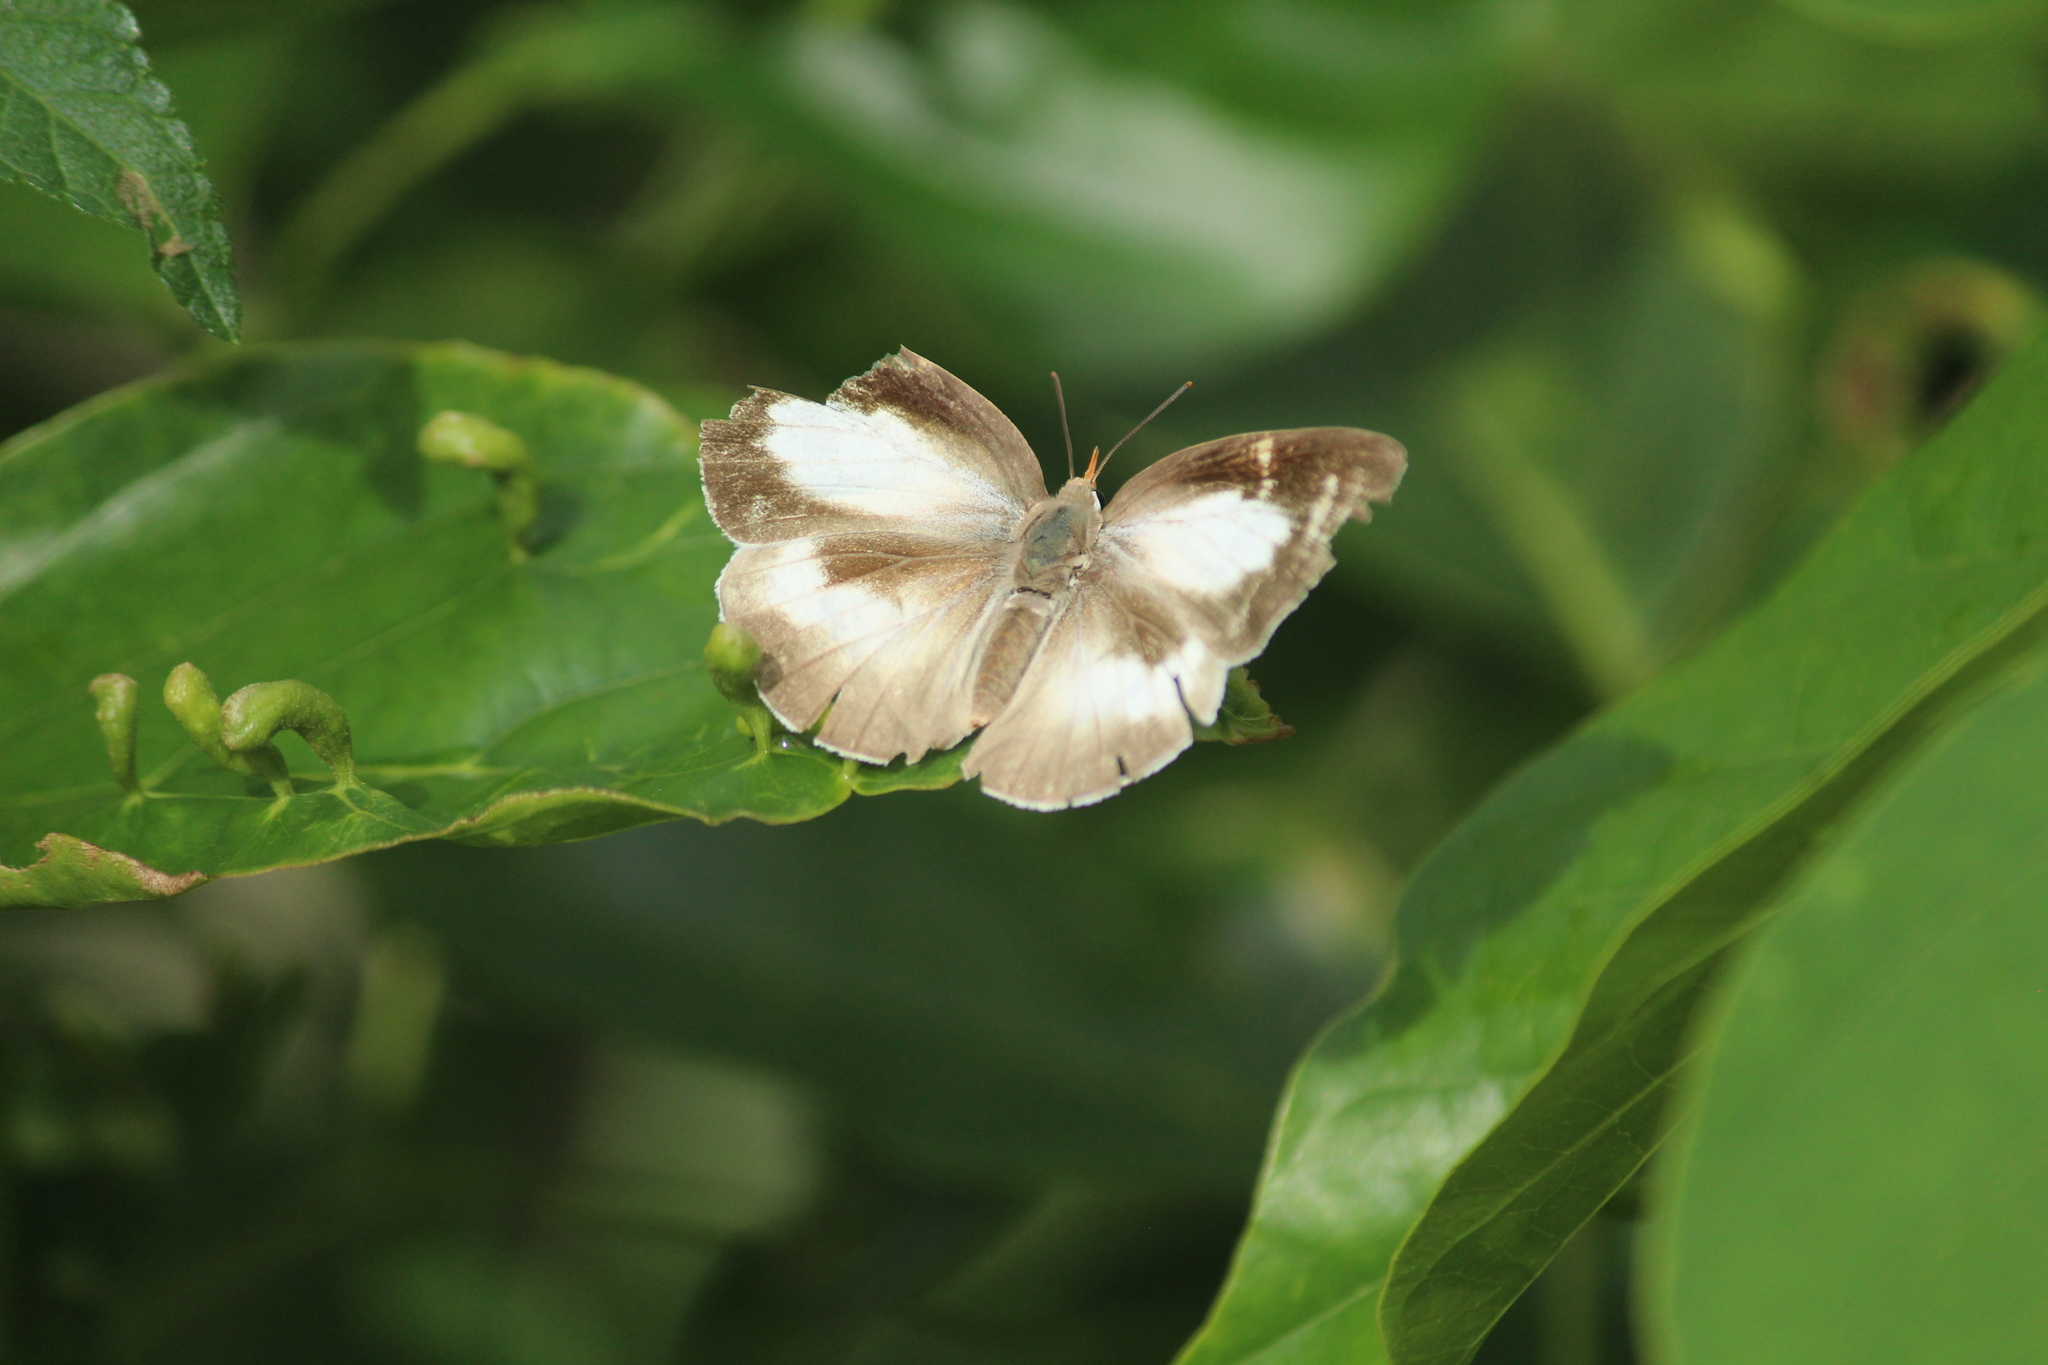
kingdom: Animalia
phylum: Arthropoda
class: Insecta
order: Lepidoptera
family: Lycaenidae
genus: Curetis
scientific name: Curetis thetis
